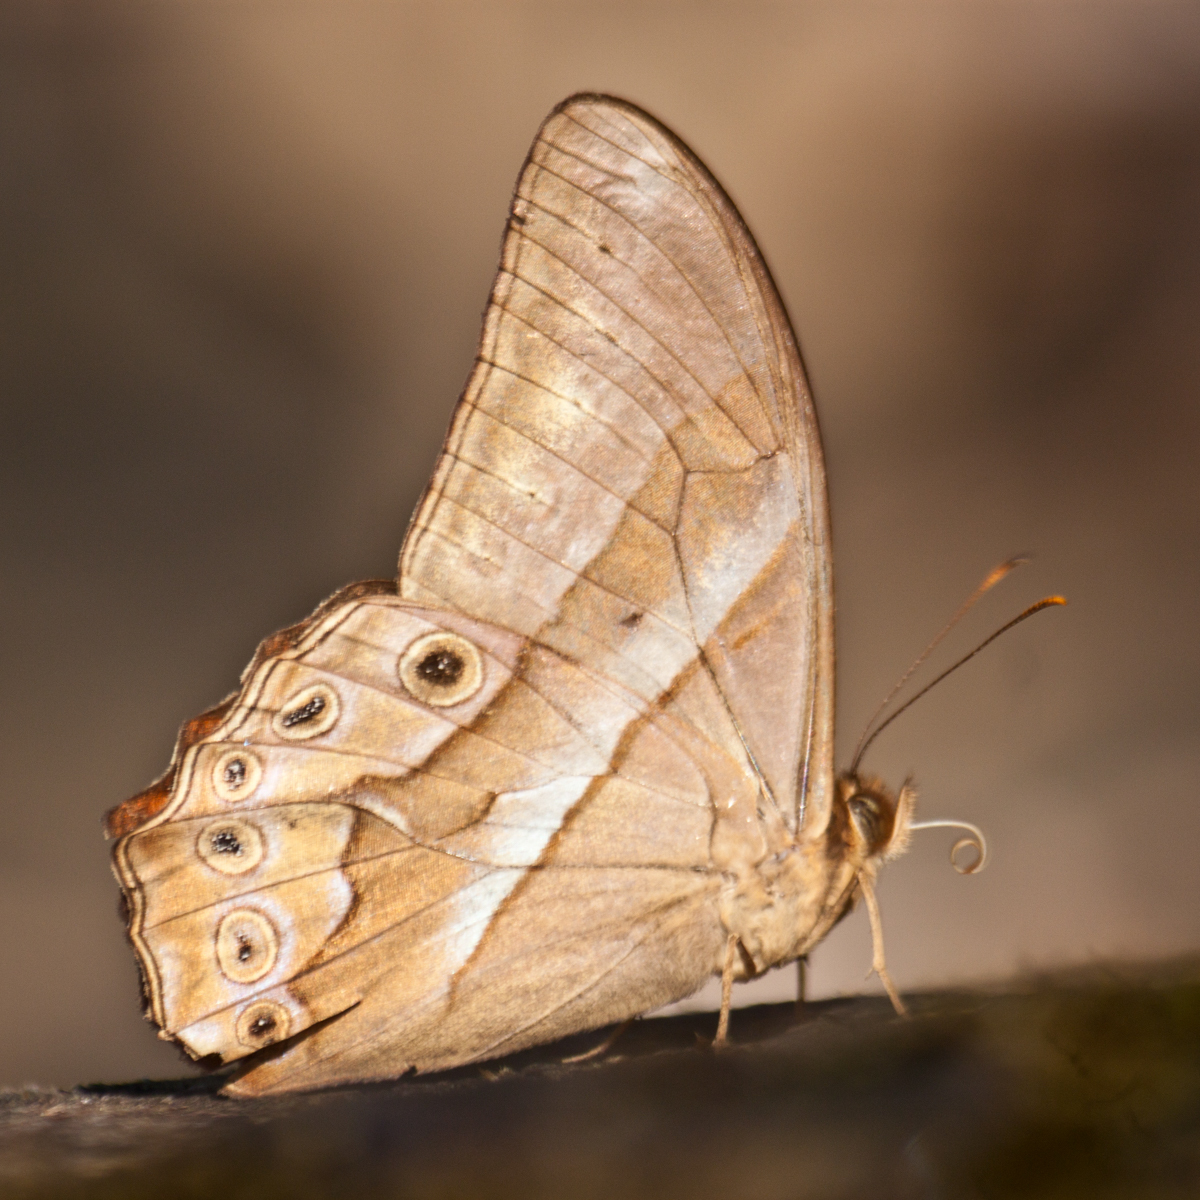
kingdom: Animalia
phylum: Arthropoda
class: Insecta
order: Lepidoptera
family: Nymphalidae
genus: Lethe
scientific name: Lethe mekara
